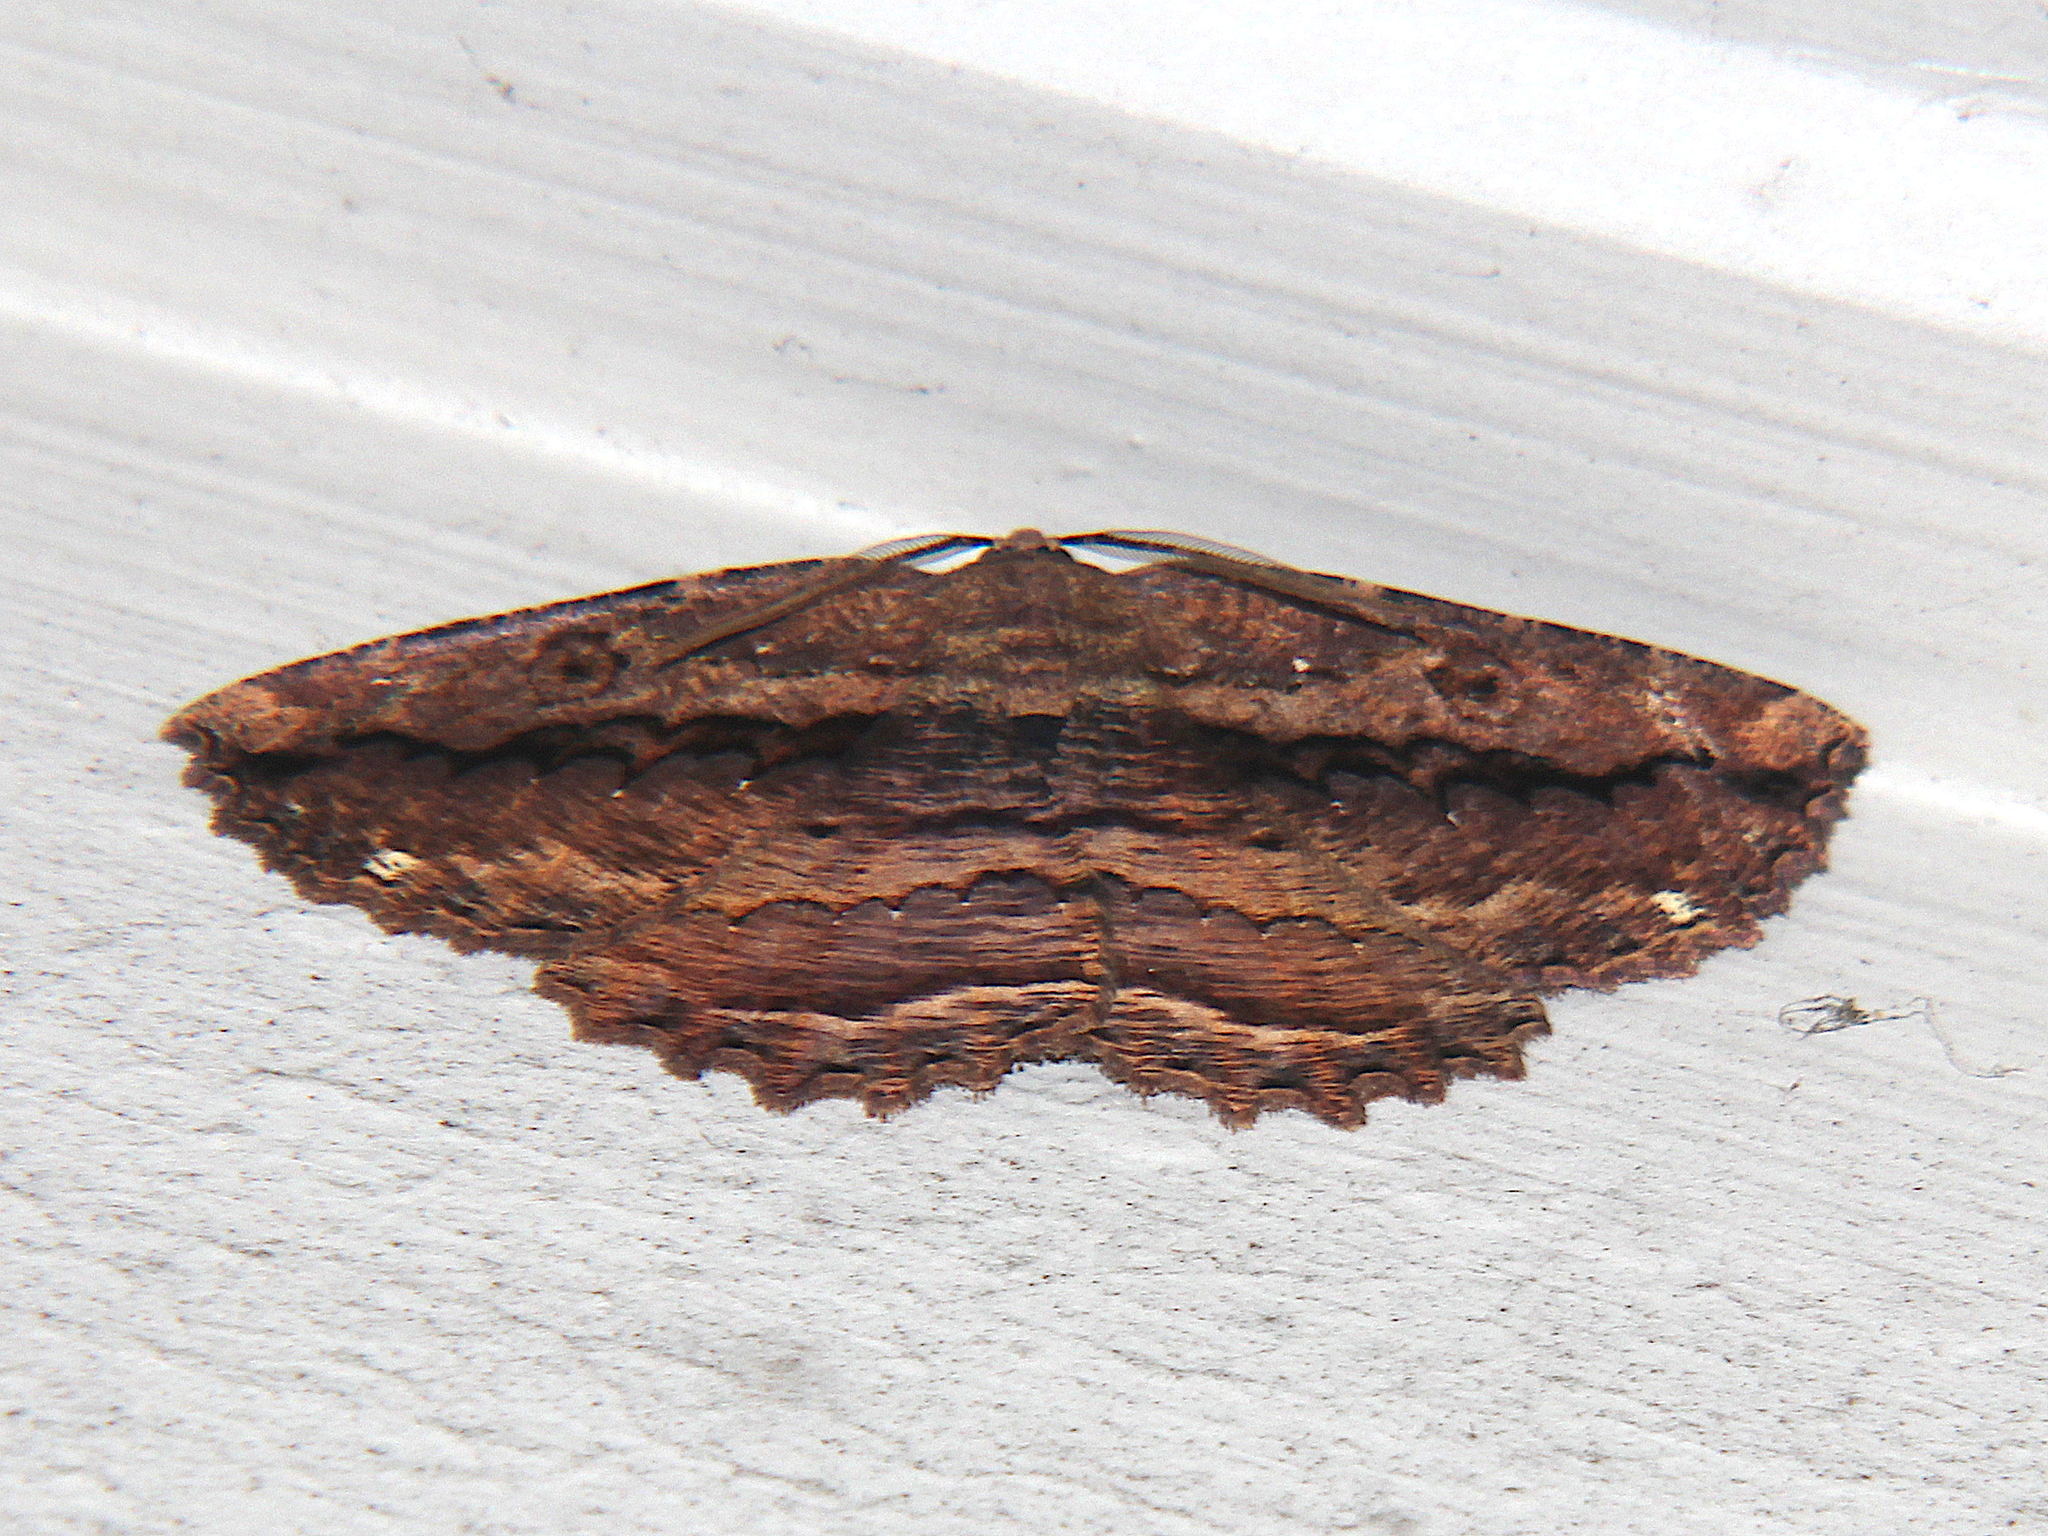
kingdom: Animalia
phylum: Arthropoda
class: Insecta
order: Lepidoptera
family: Geometridae
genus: Gellonia
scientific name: Gellonia dejectaria
